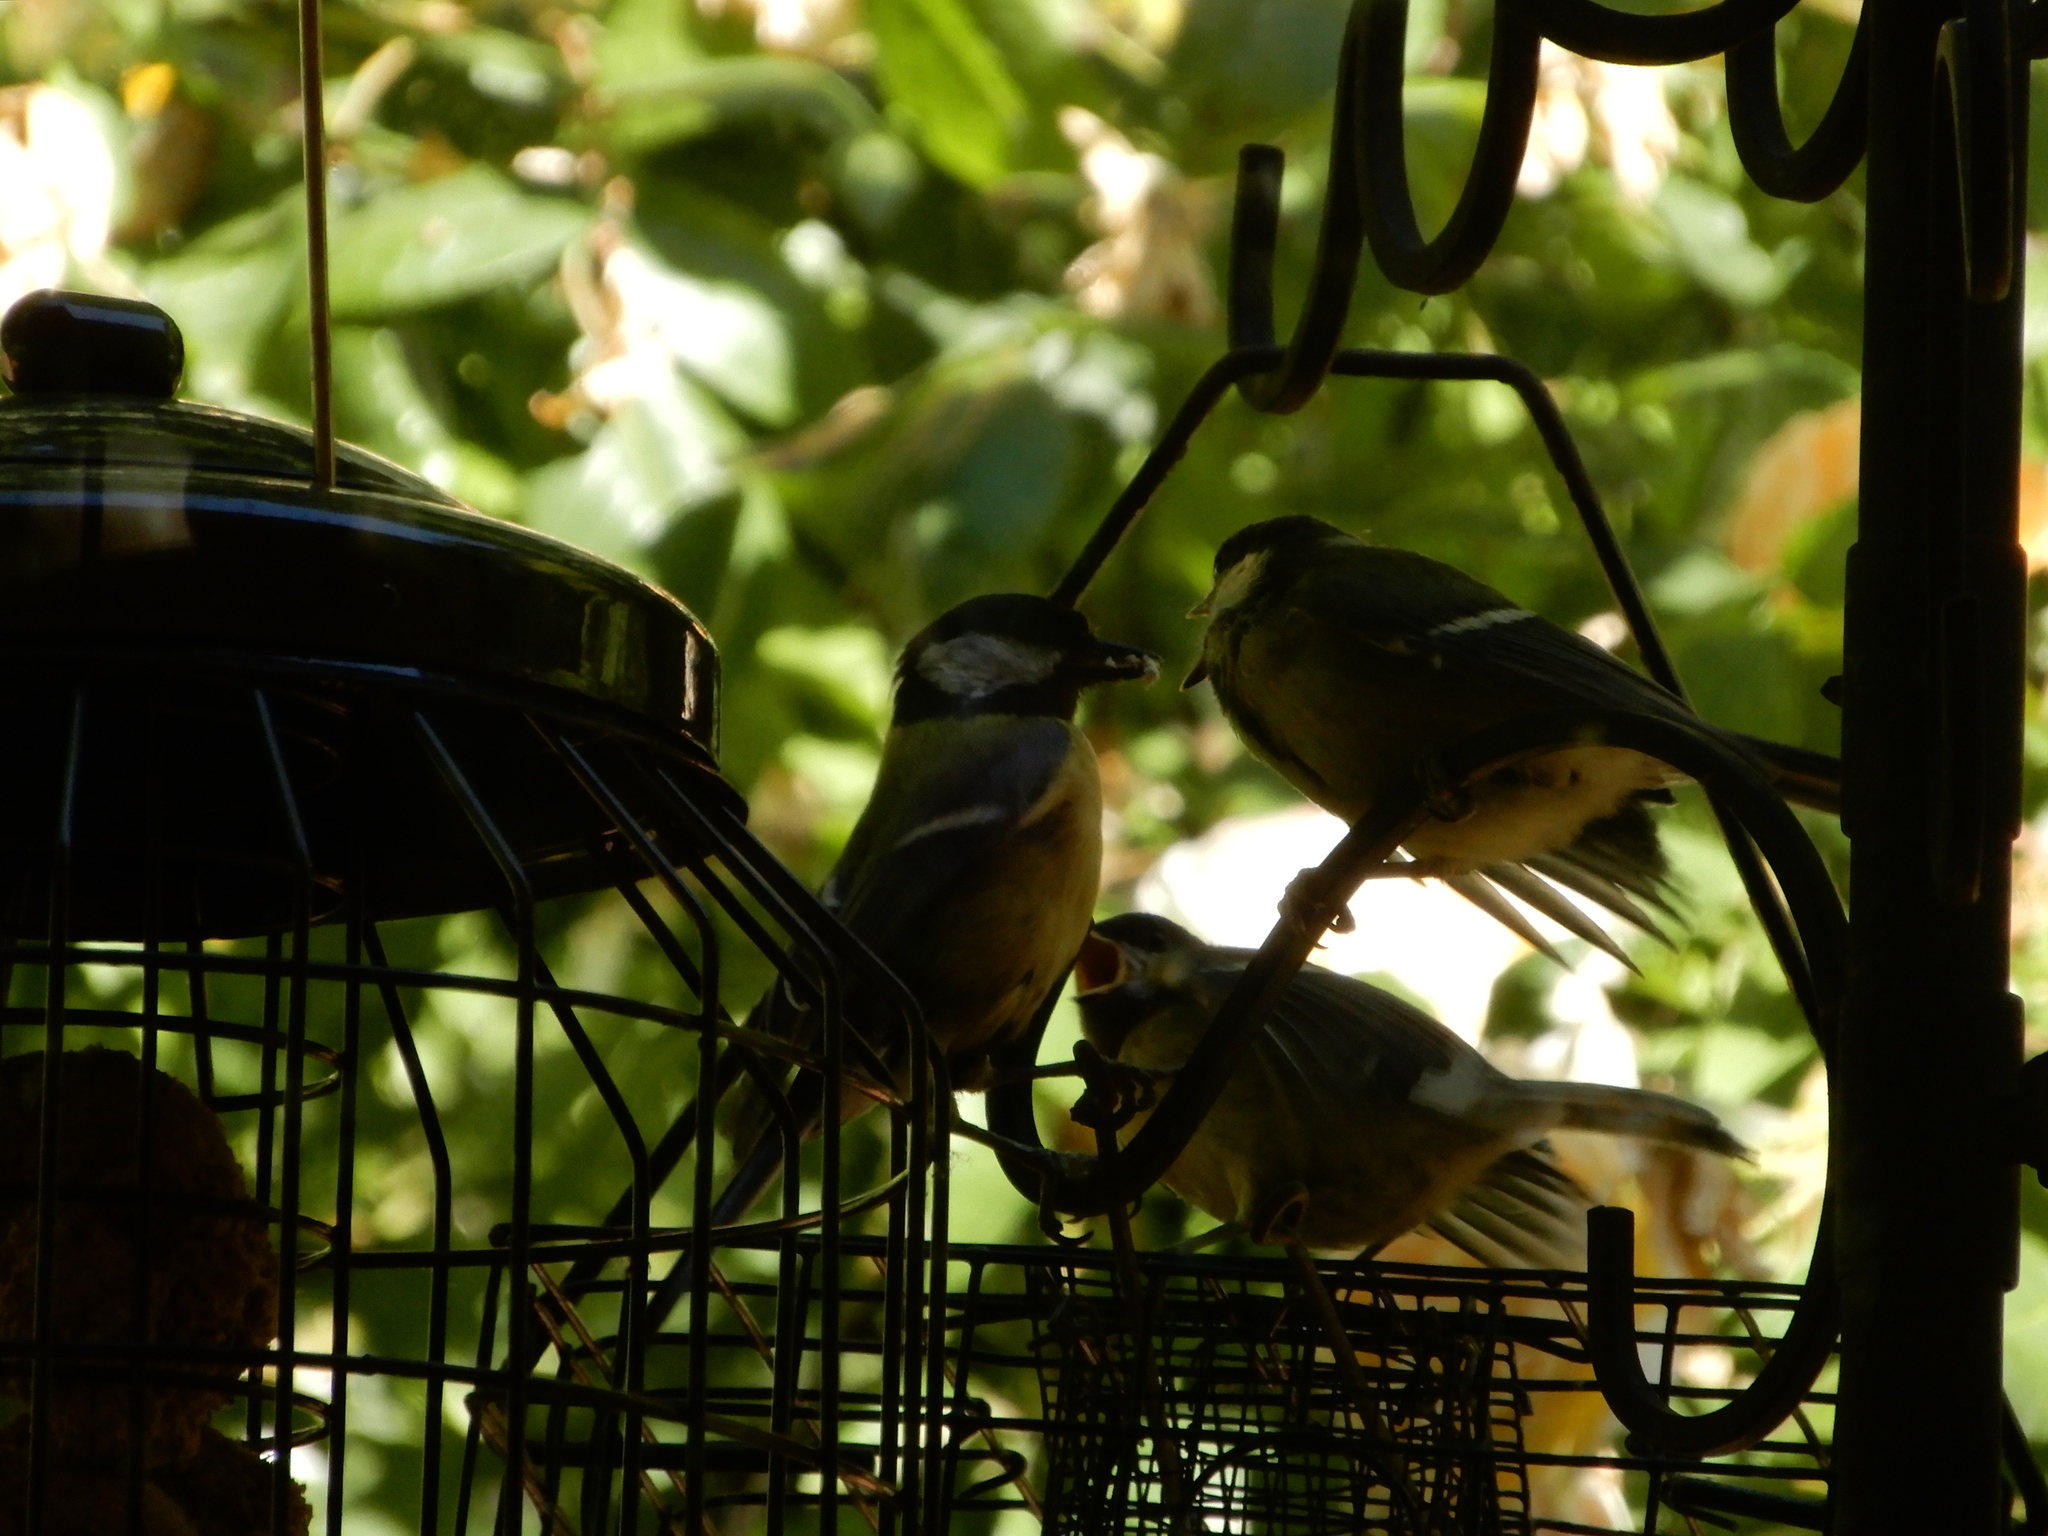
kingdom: Animalia
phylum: Chordata
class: Aves
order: Passeriformes
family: Paridae
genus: Parus
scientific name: Parus major
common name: Great tit
